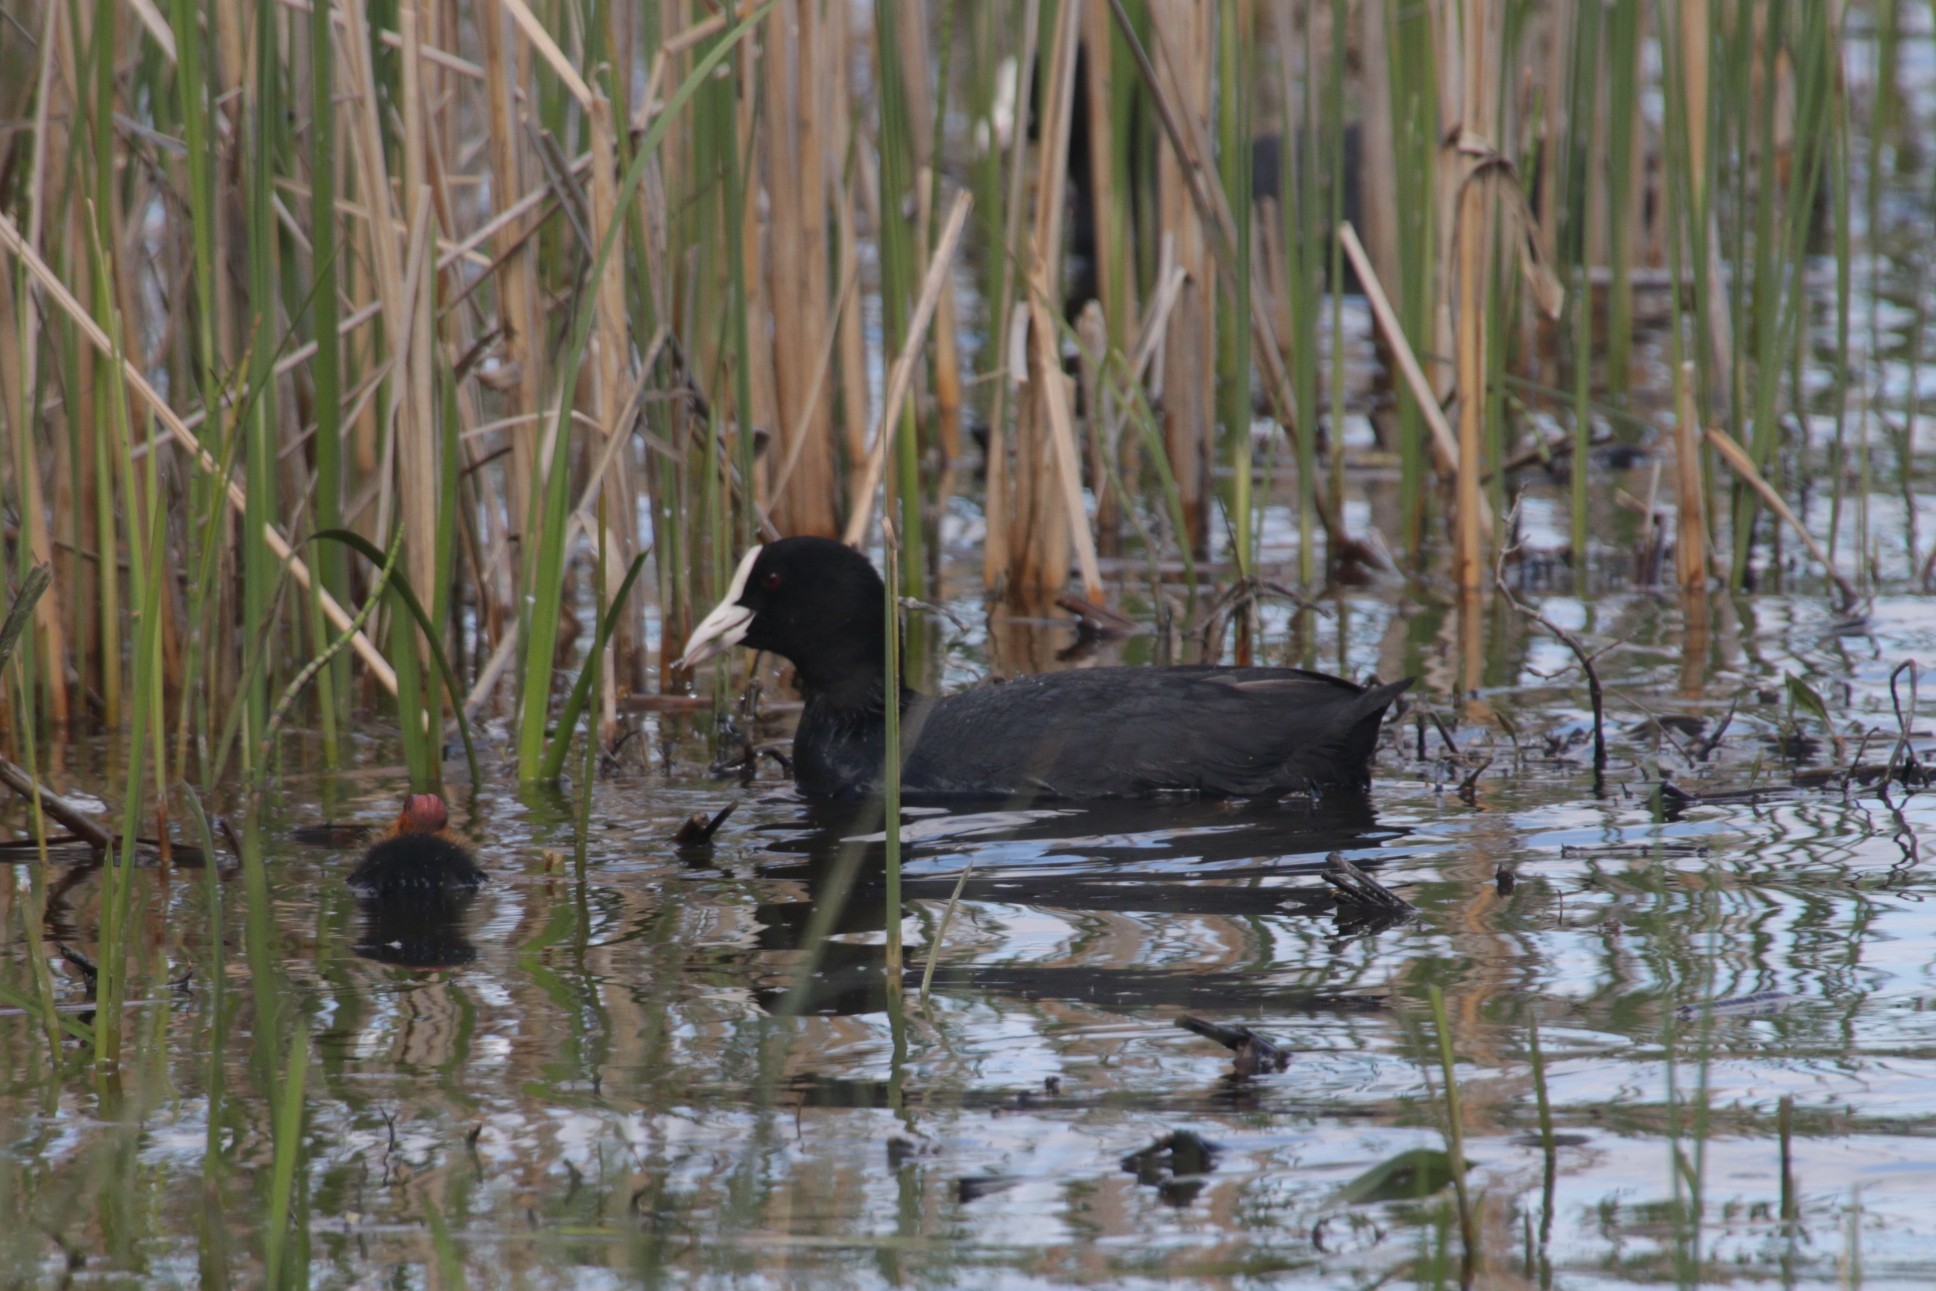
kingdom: Animalia
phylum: Chordata
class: Aves
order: Gruiformes
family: Rallidae
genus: Fulica
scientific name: Fulica atra
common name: Eurasian coot
